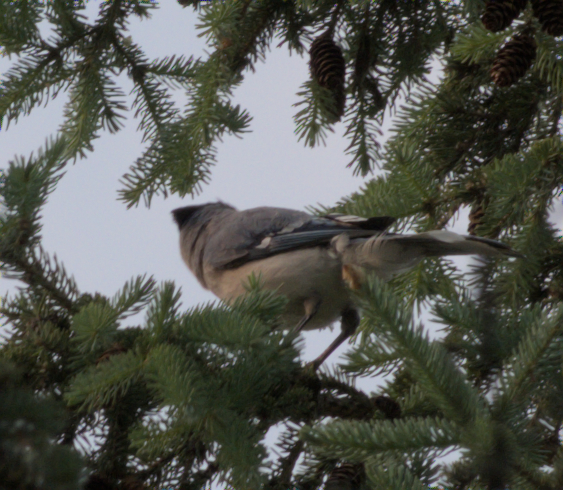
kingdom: Animalia
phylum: Chordata
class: Aves
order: Passeriformes
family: Corvidae
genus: Cyanocitta
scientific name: Cyanocitta cristata
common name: Blue jay
